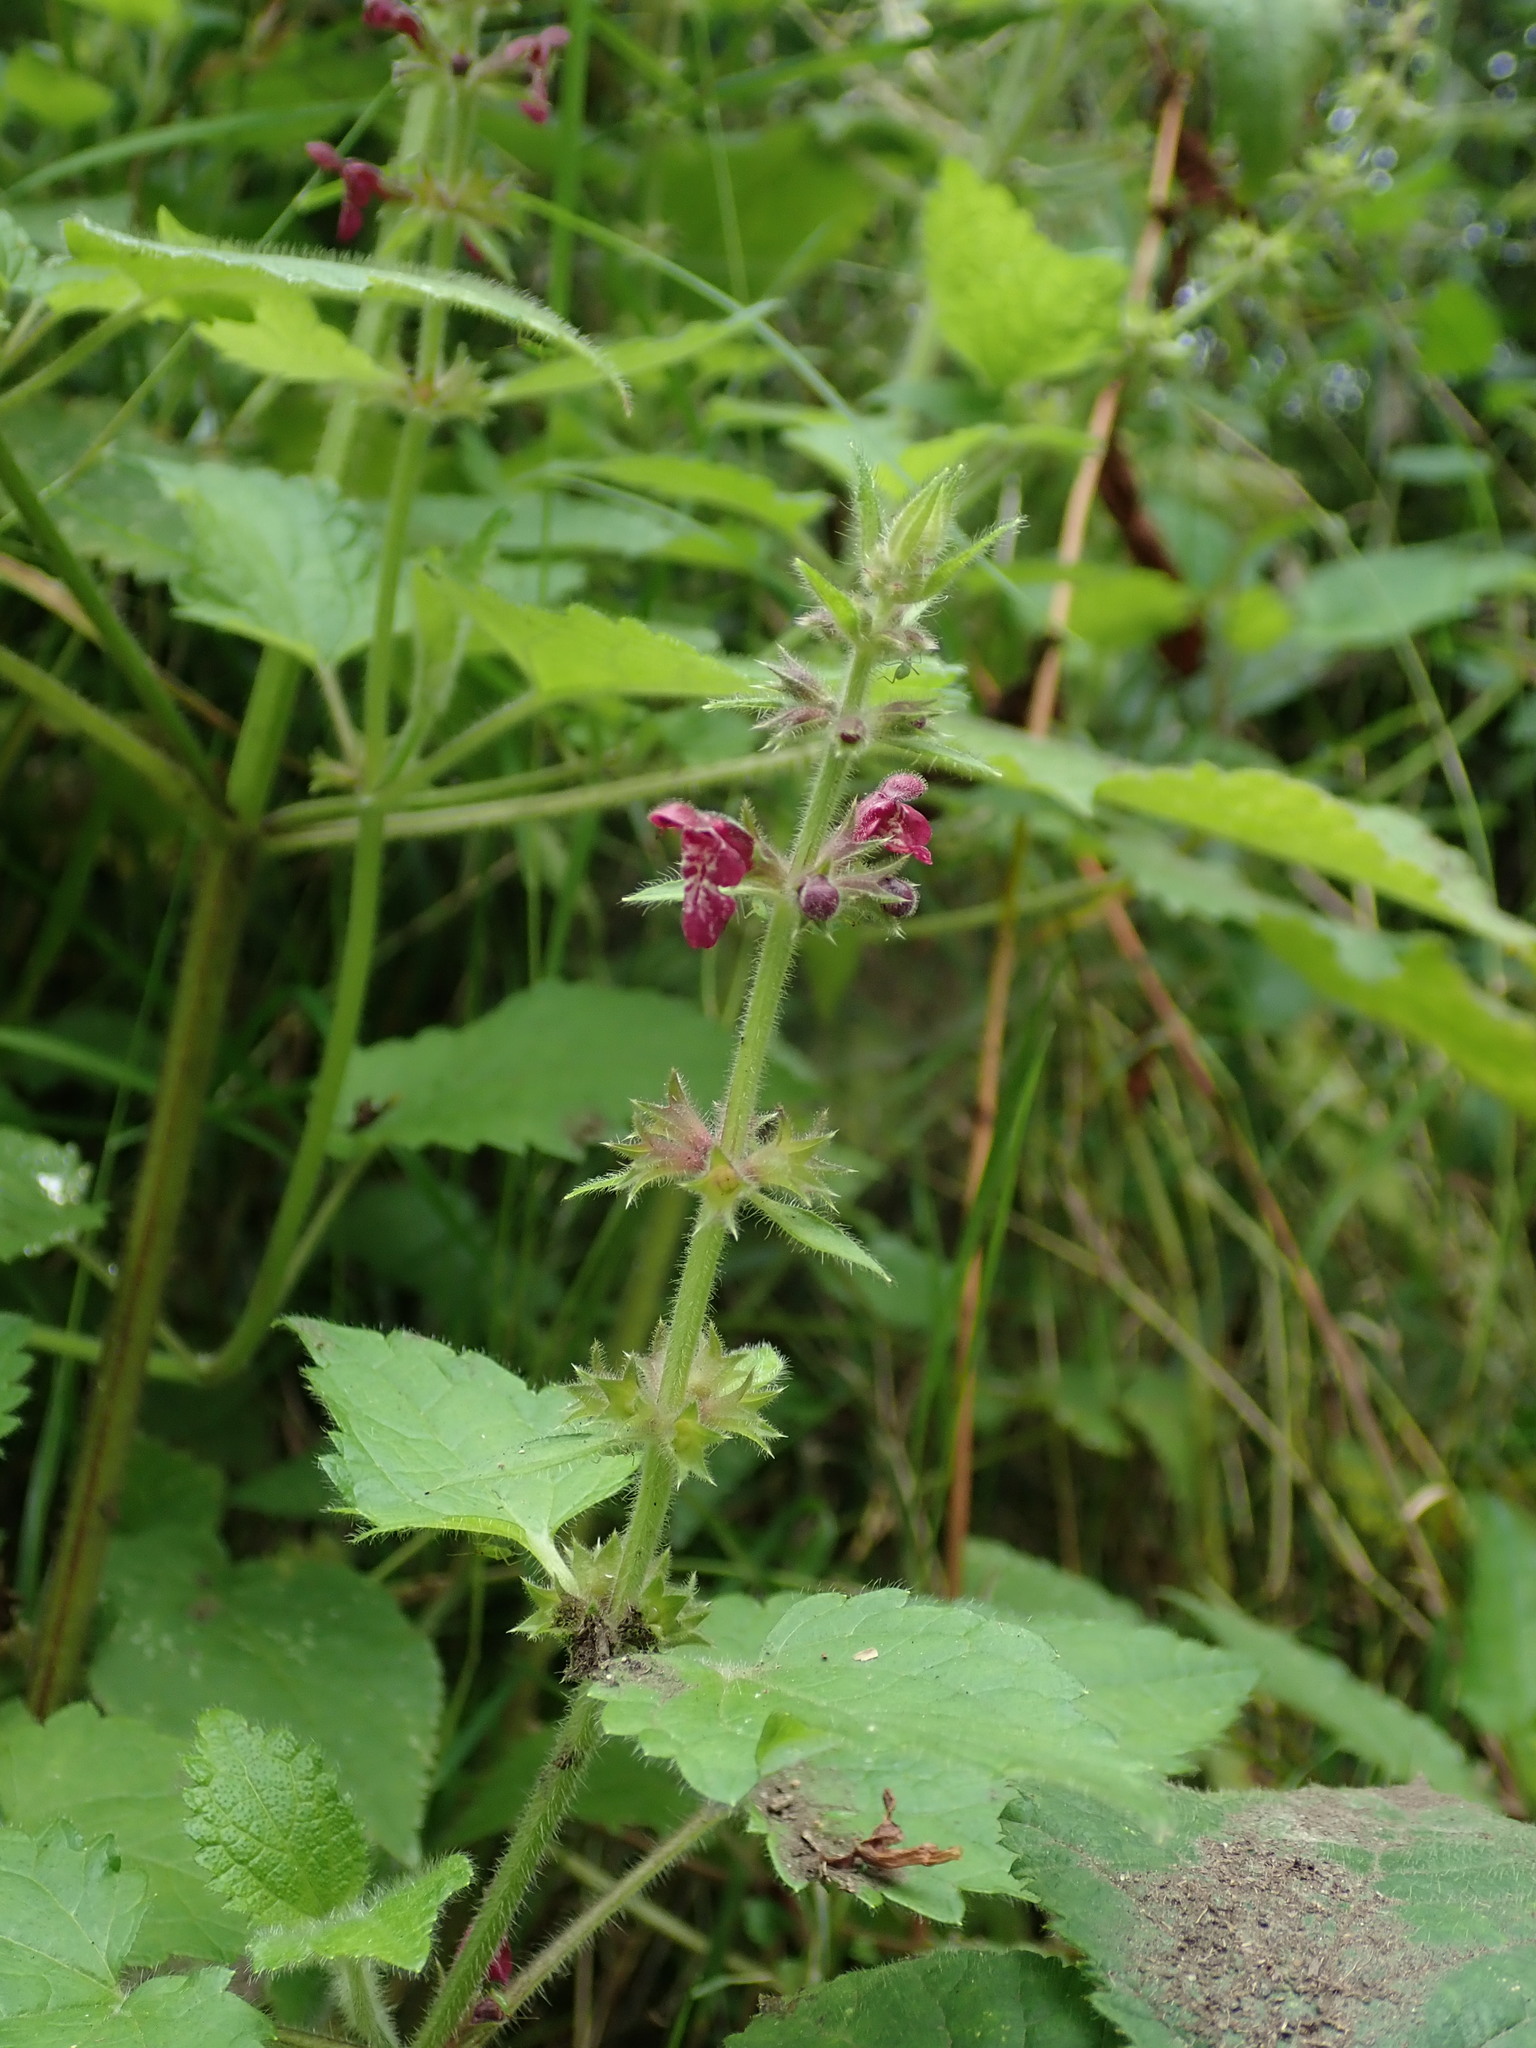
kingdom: Plantae
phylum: Tracheophyta
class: Magnoliopsida
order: Lamiales
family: Lamiaceae
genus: Stachys
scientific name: Stachys sylvatica
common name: Hedge woundwort
